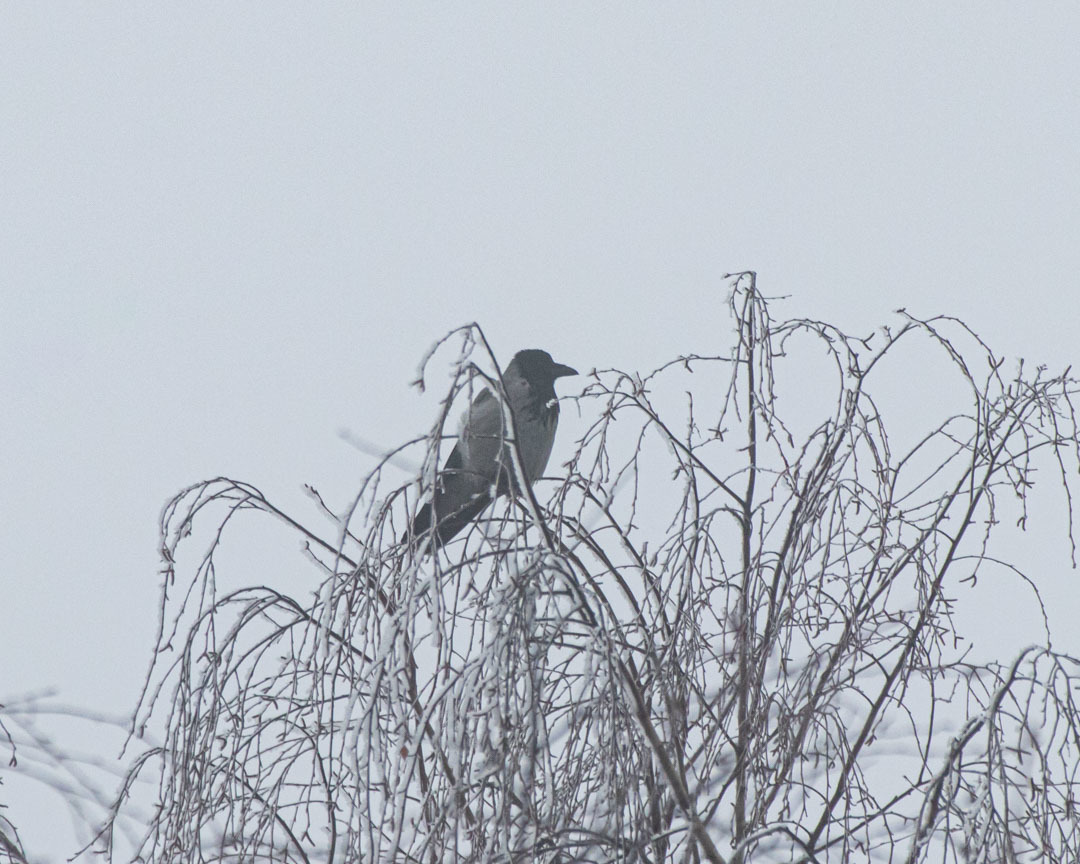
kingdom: Animalia
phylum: Chordata
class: Aves
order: Passeriformes
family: Corvidae
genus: Corvus
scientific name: Corvus cornix
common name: Hooded crow
